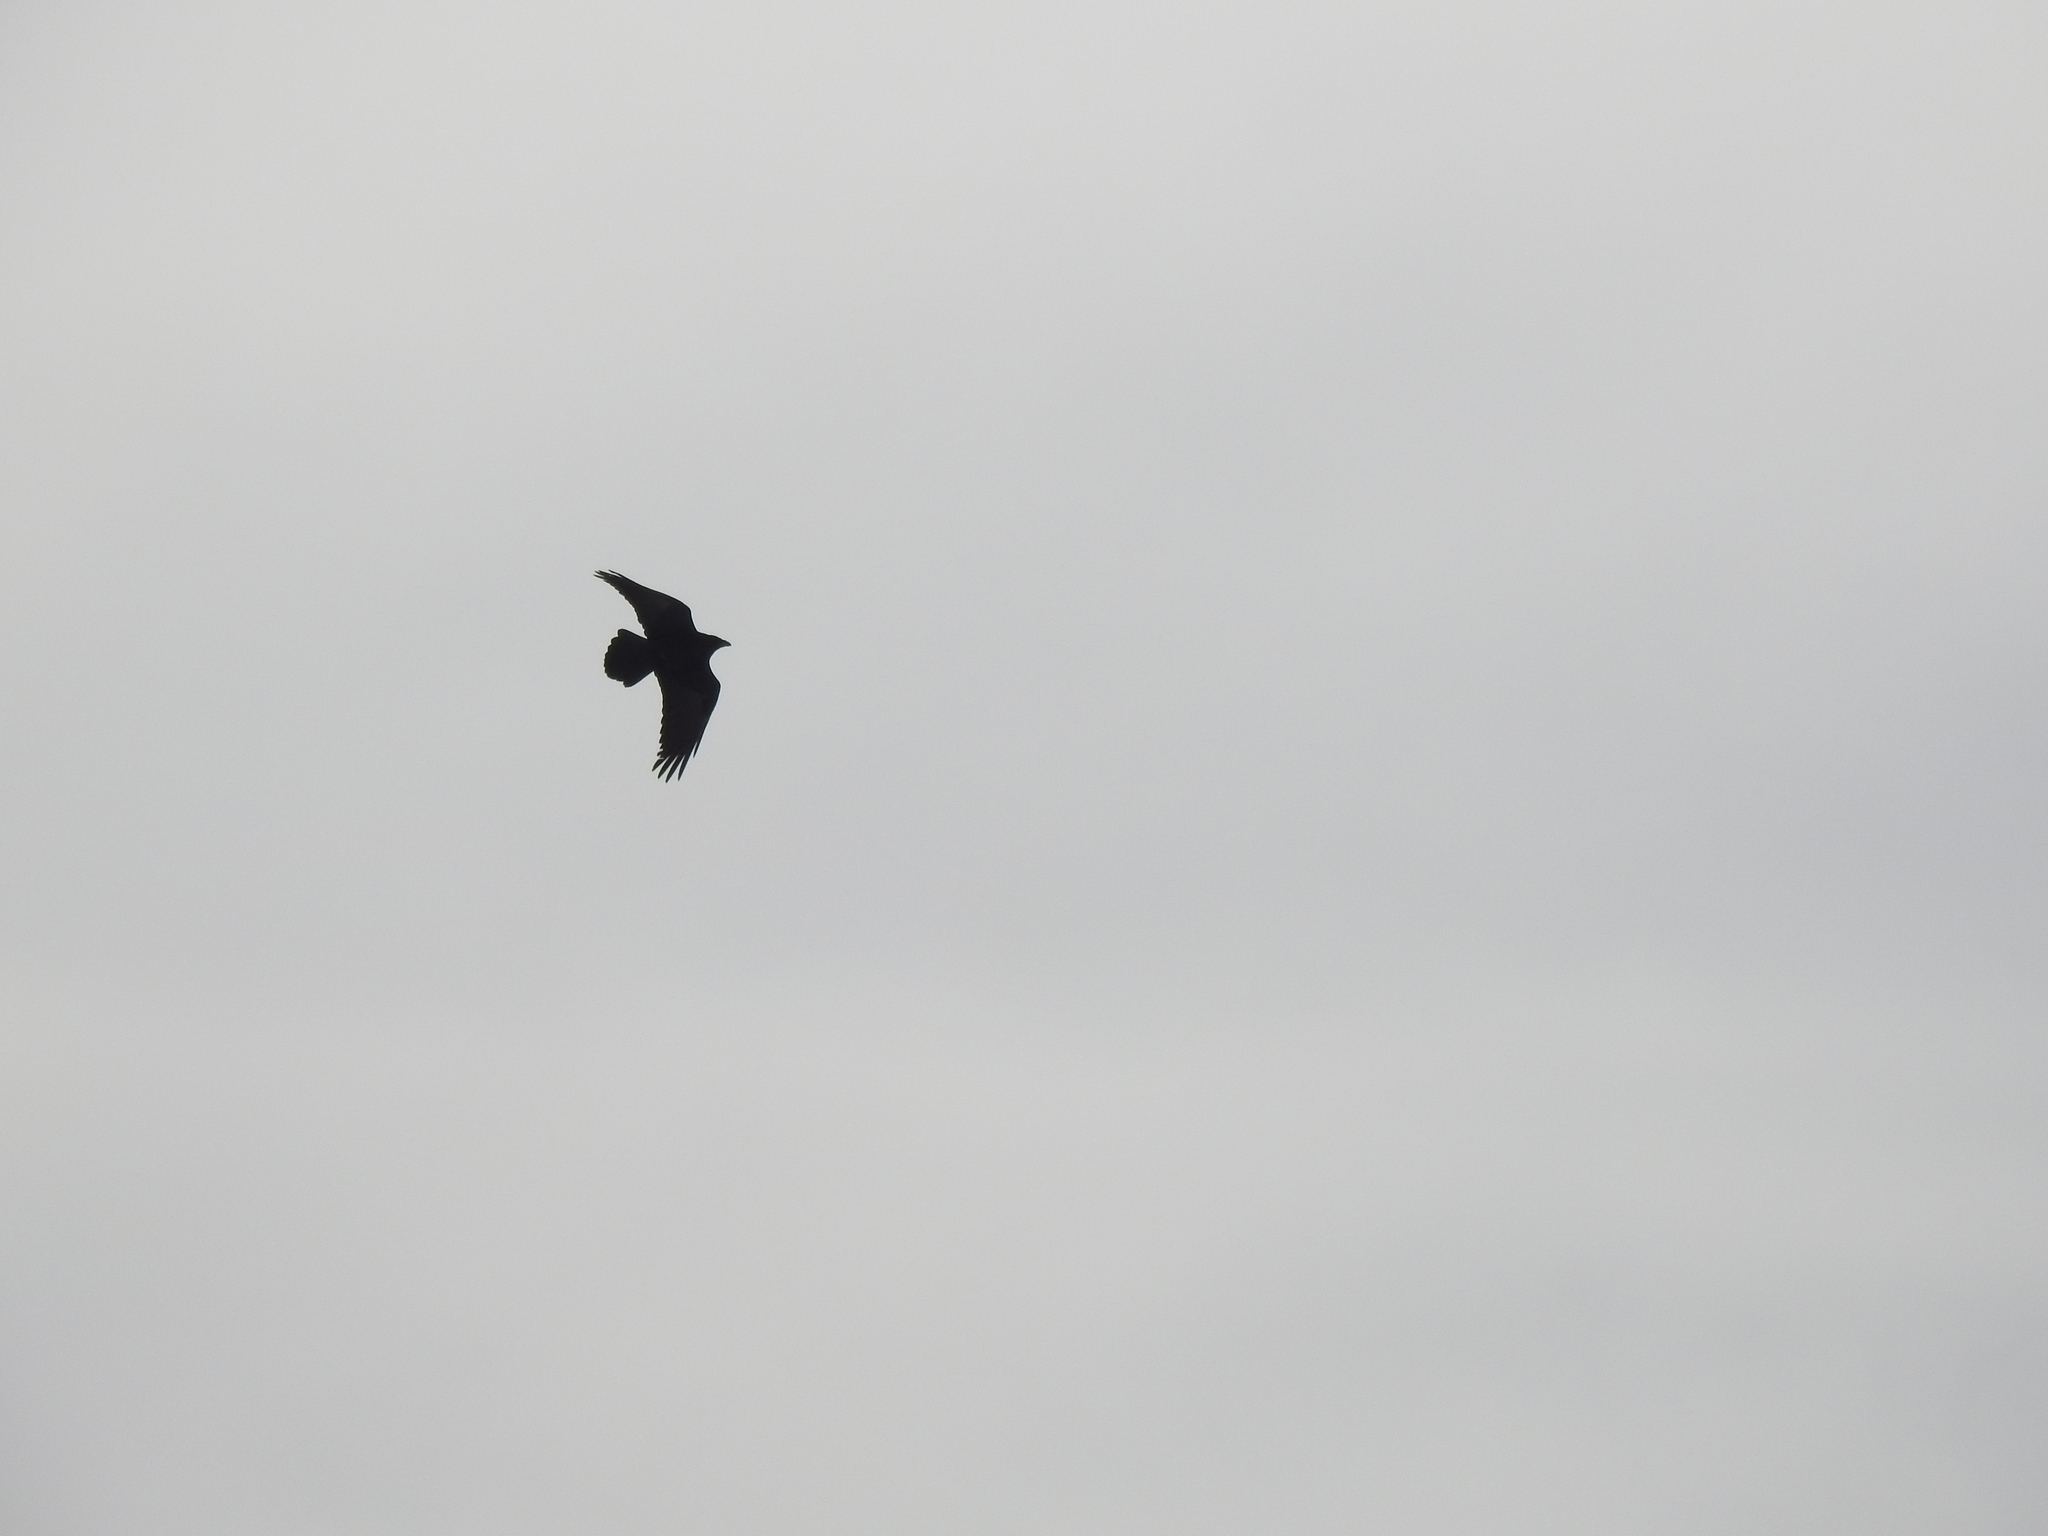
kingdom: Animalia
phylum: Chordata
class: Aves
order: Passeriformes
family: Corvidae
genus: Corvus
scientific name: Corvus corax
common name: Common raven
